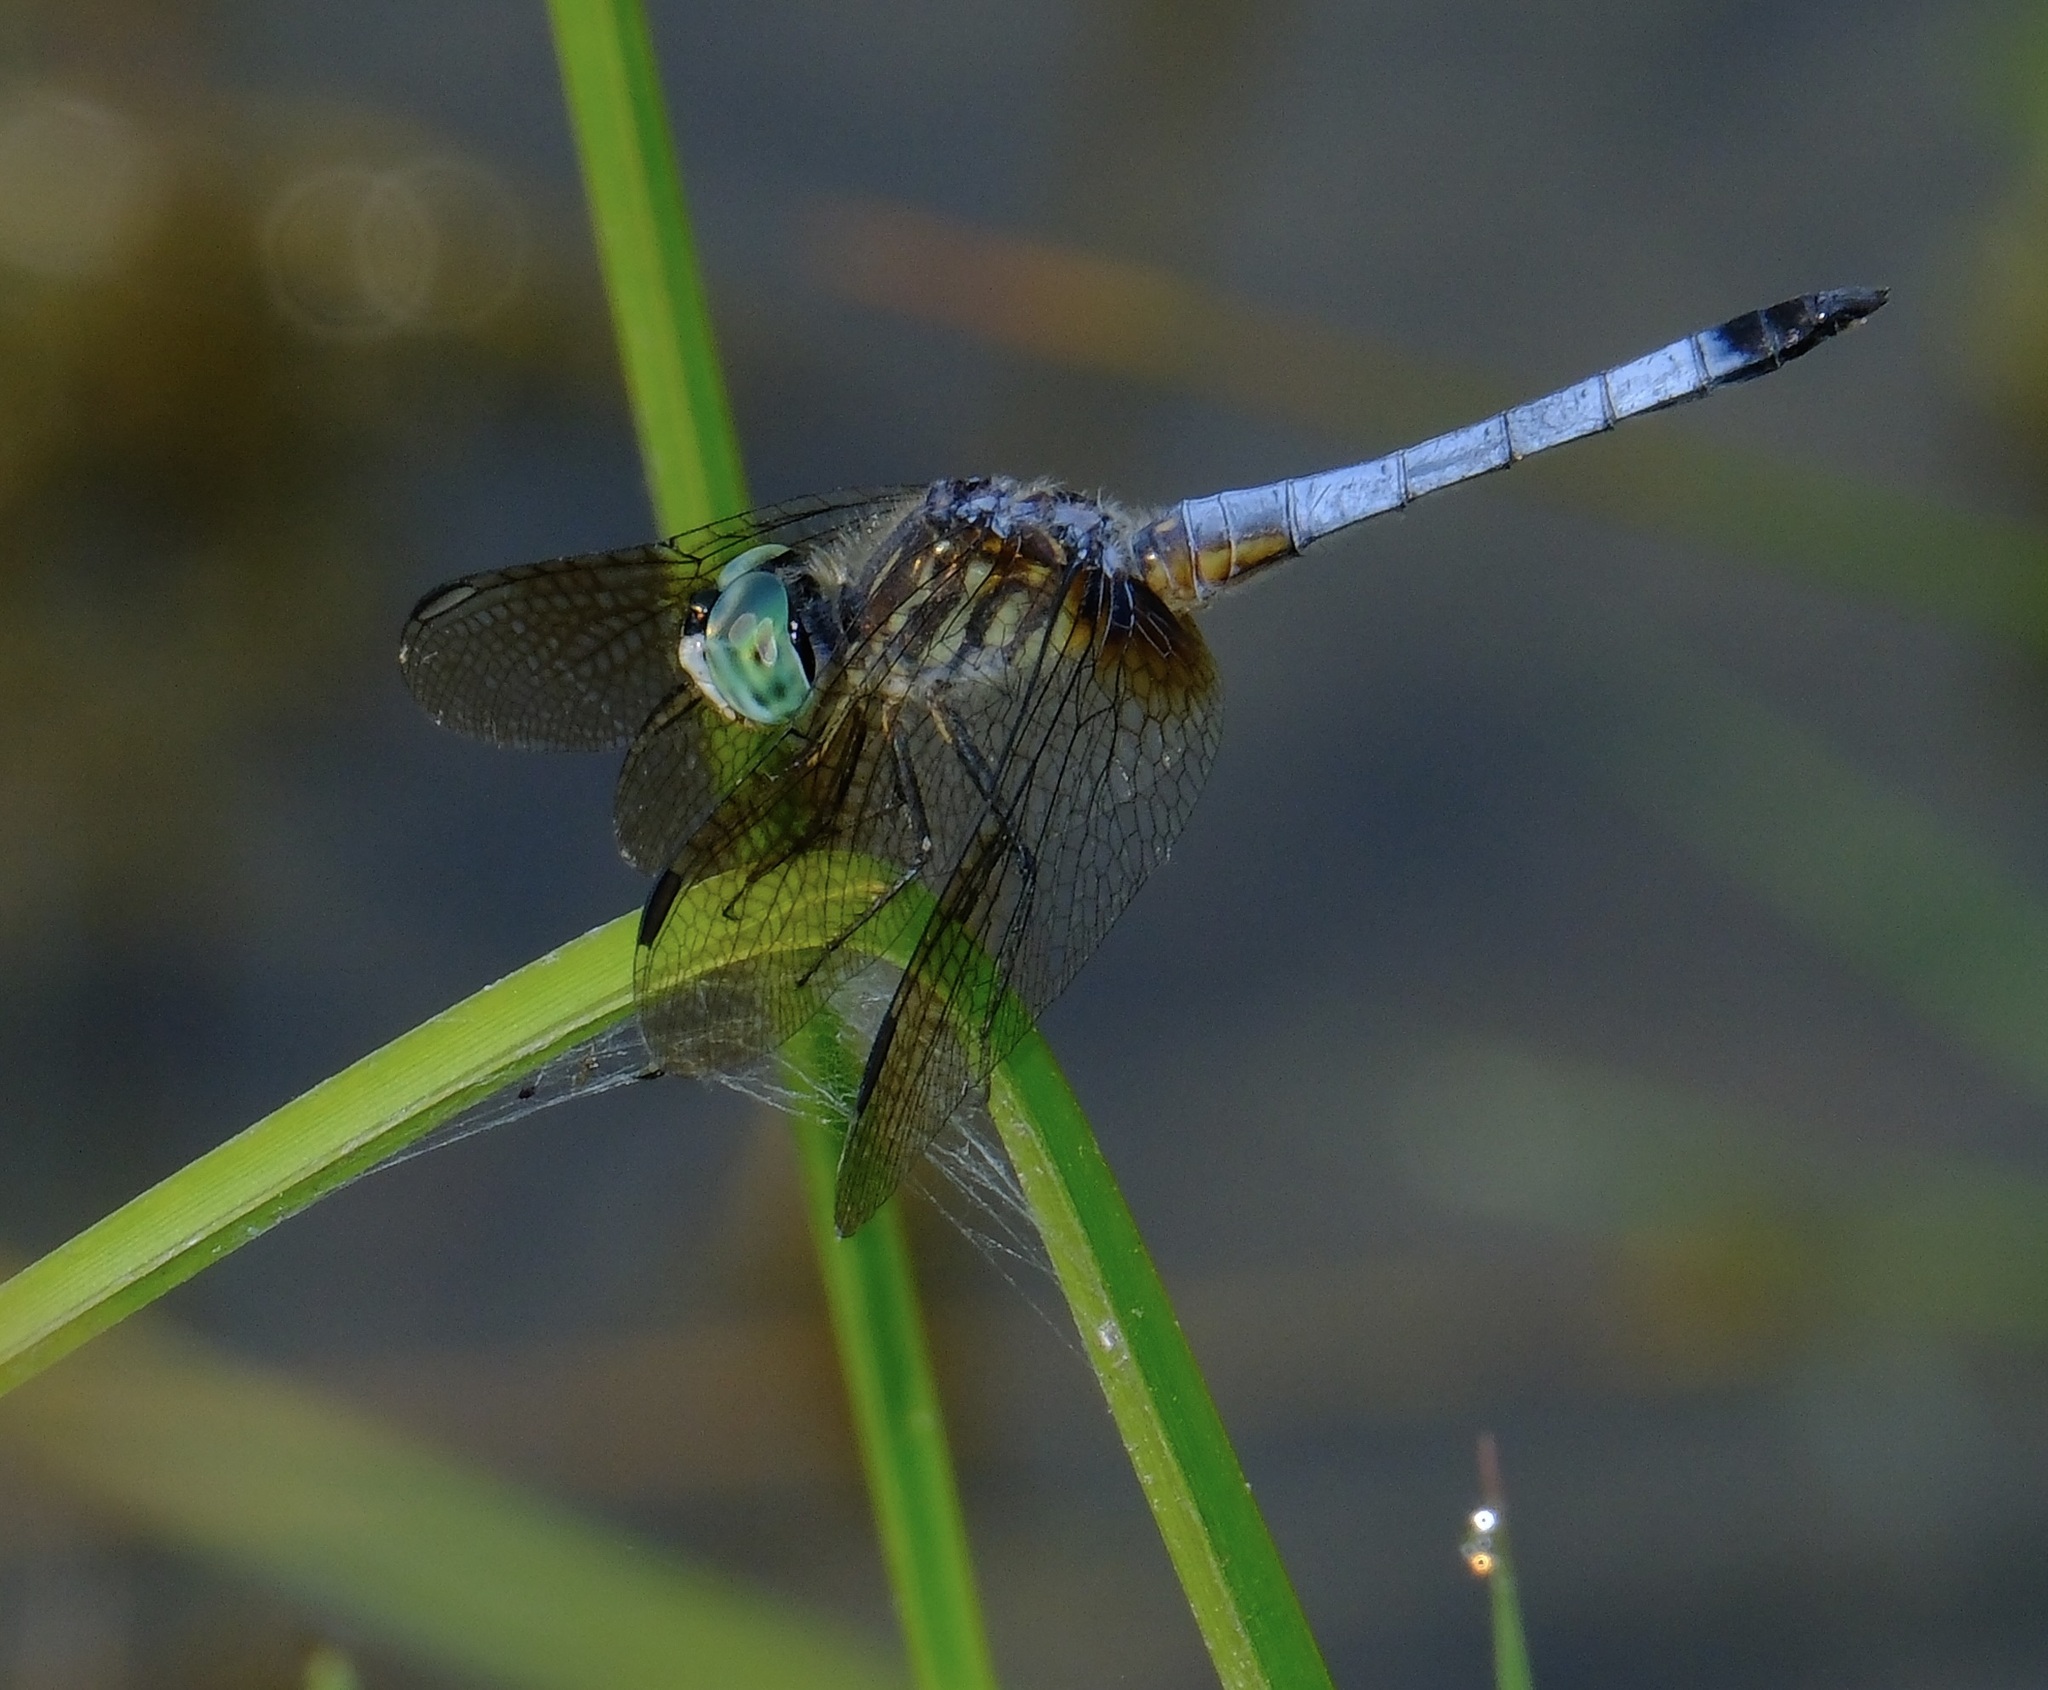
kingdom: Animalia
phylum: Arthropoda
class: Insecta
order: Odonata
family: Libellulidae
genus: Pachydiplax
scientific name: Pachydiplax longipennis
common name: Blue dasher
